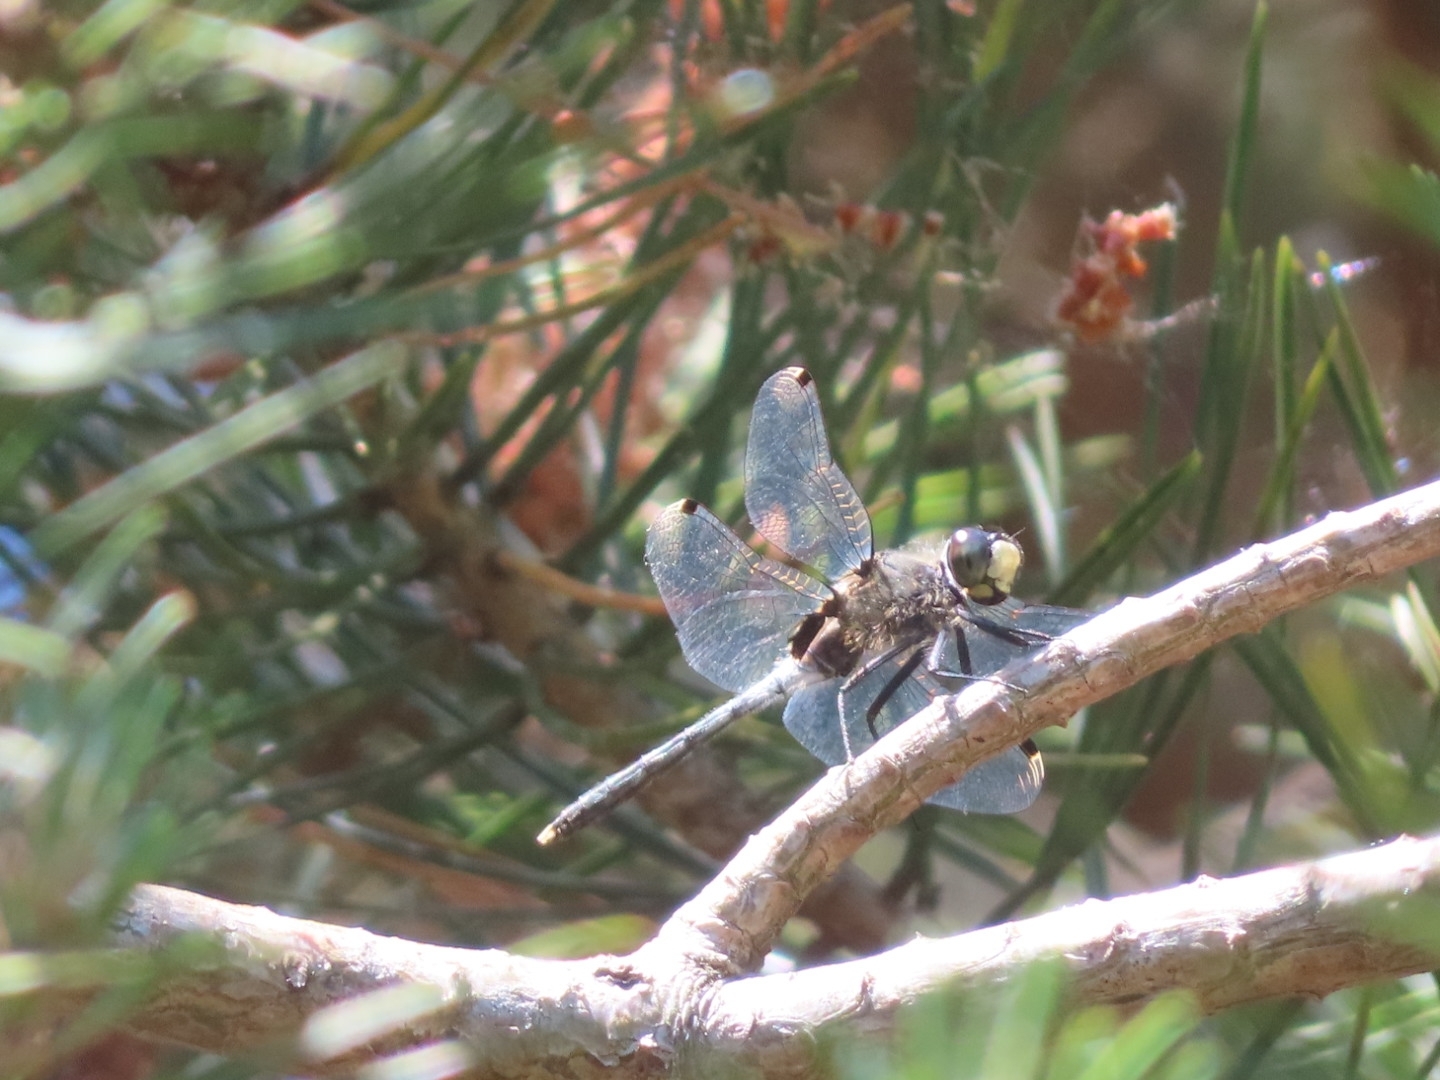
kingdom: Animalia
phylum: Arthropoda
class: Insecta
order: Odonata
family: Libellulidae
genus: Leucorrhinia
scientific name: Leucorrhinia albifrons
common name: Dark whiteface
